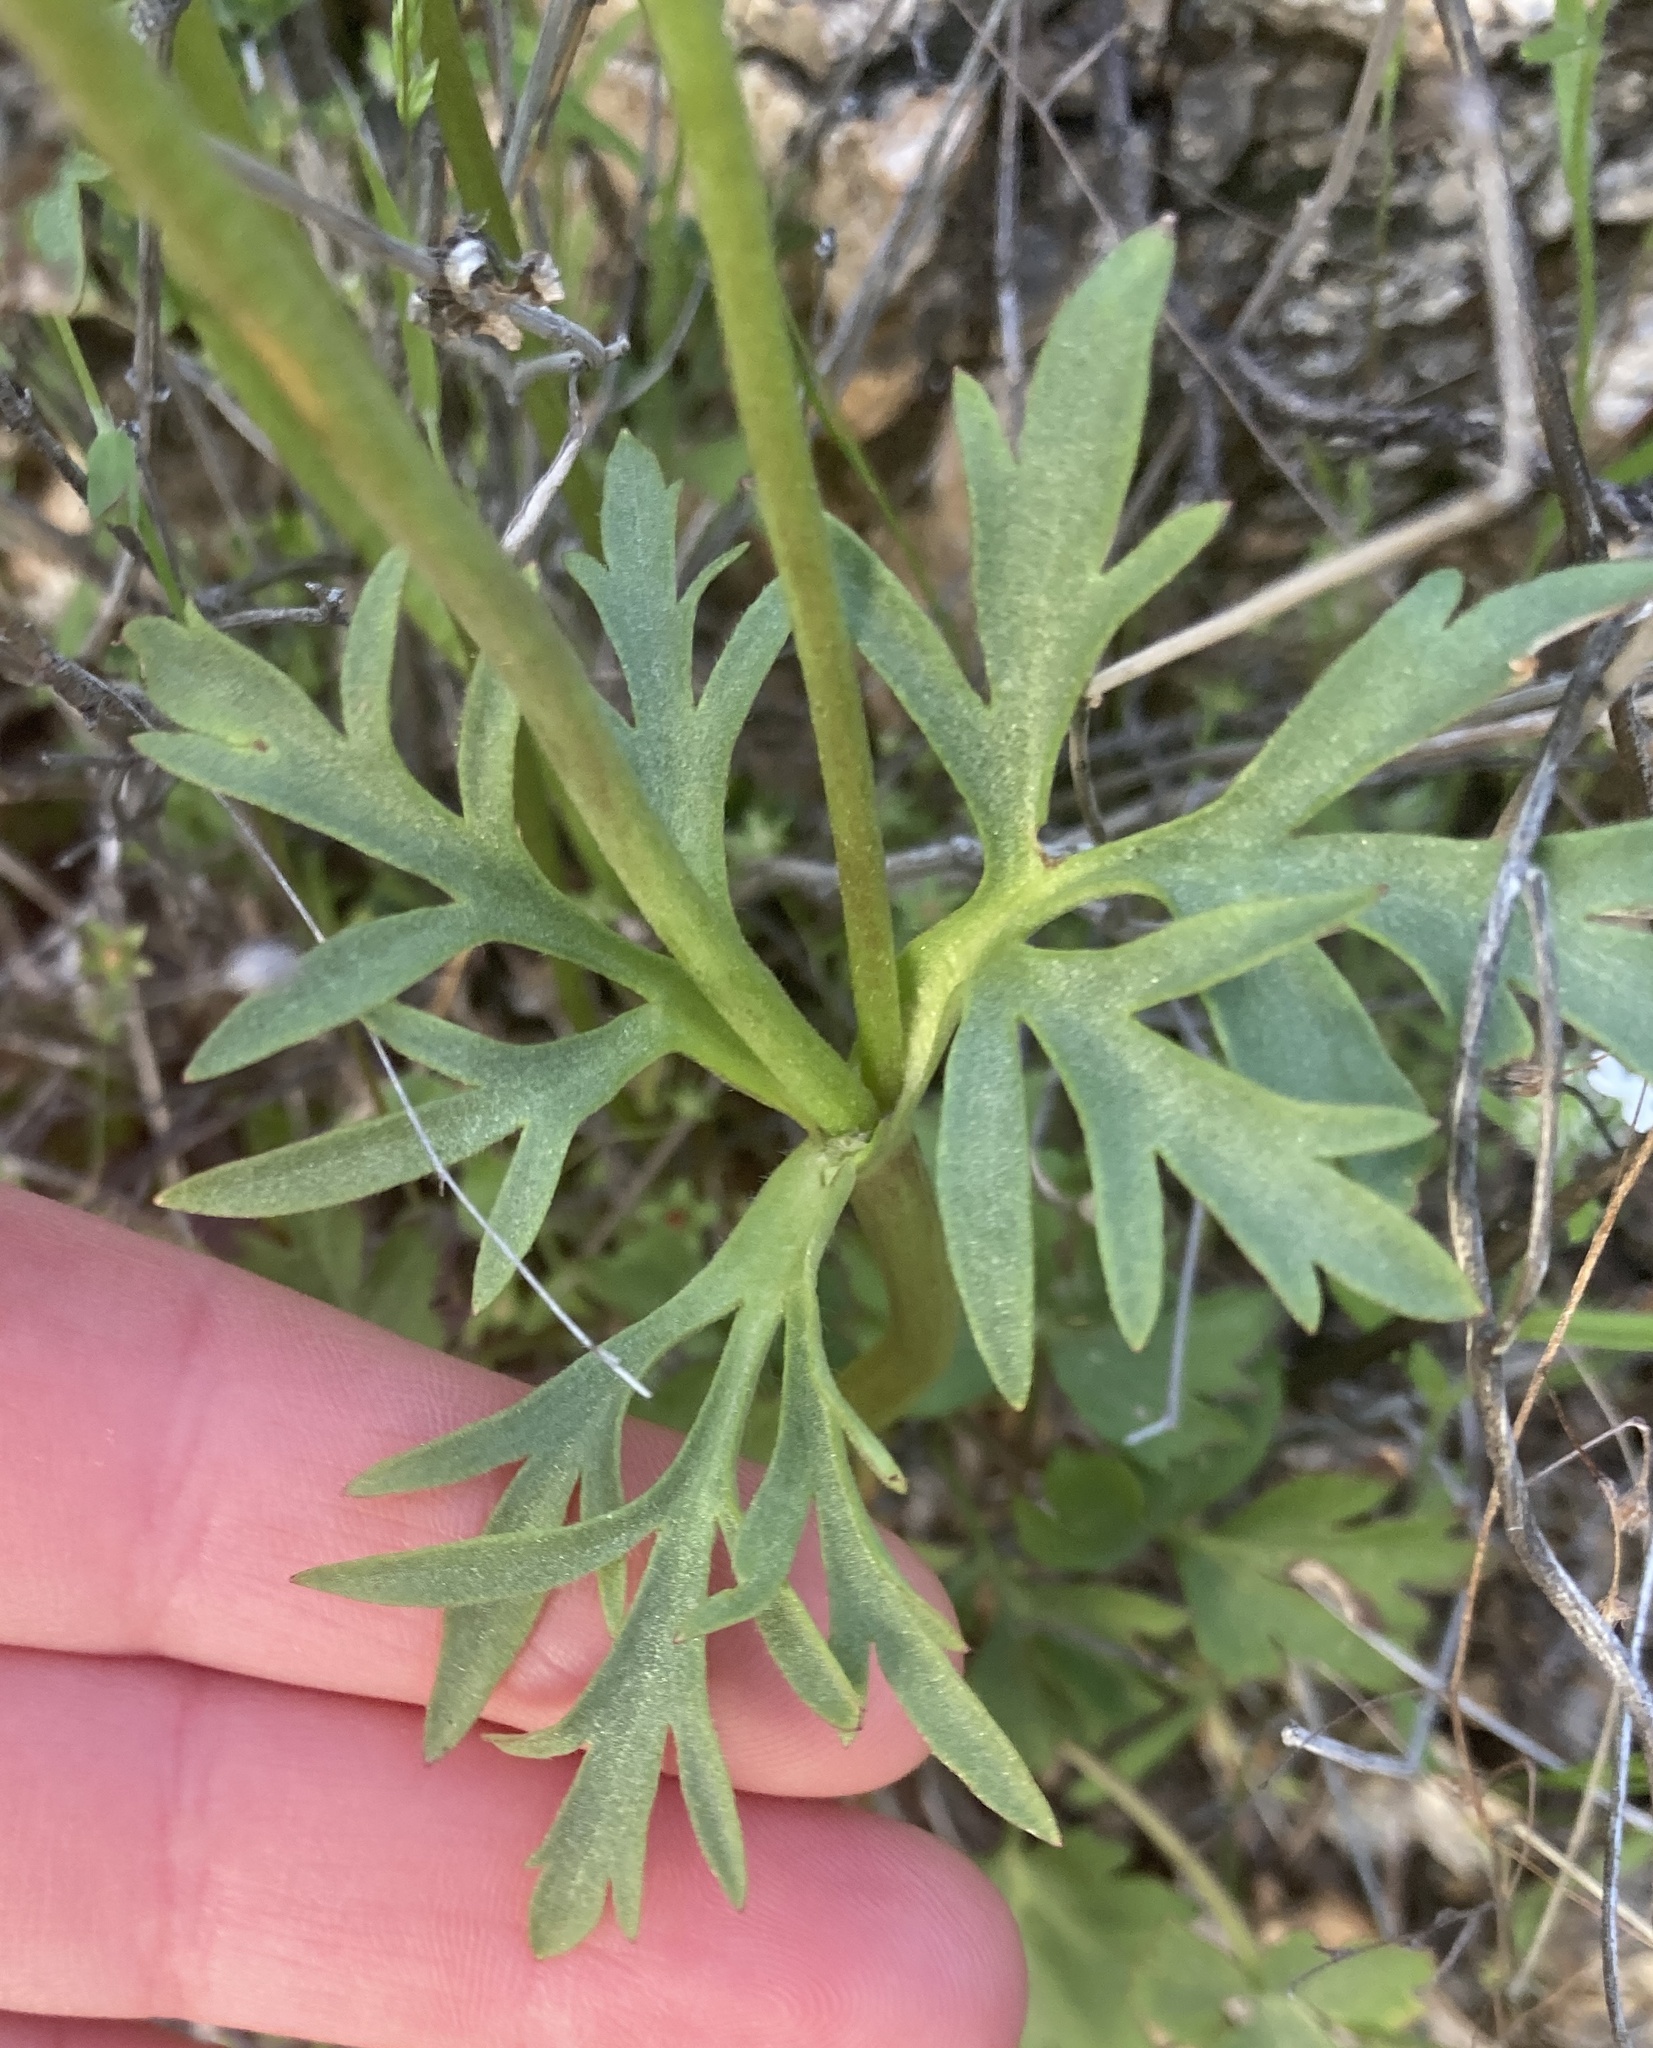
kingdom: Plantae
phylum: Tracheophyta
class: Magnoliopsida
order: Ranunculales
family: Ranunculaceae
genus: Anemone
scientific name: Anemone tuberosa
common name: Desert anemone
